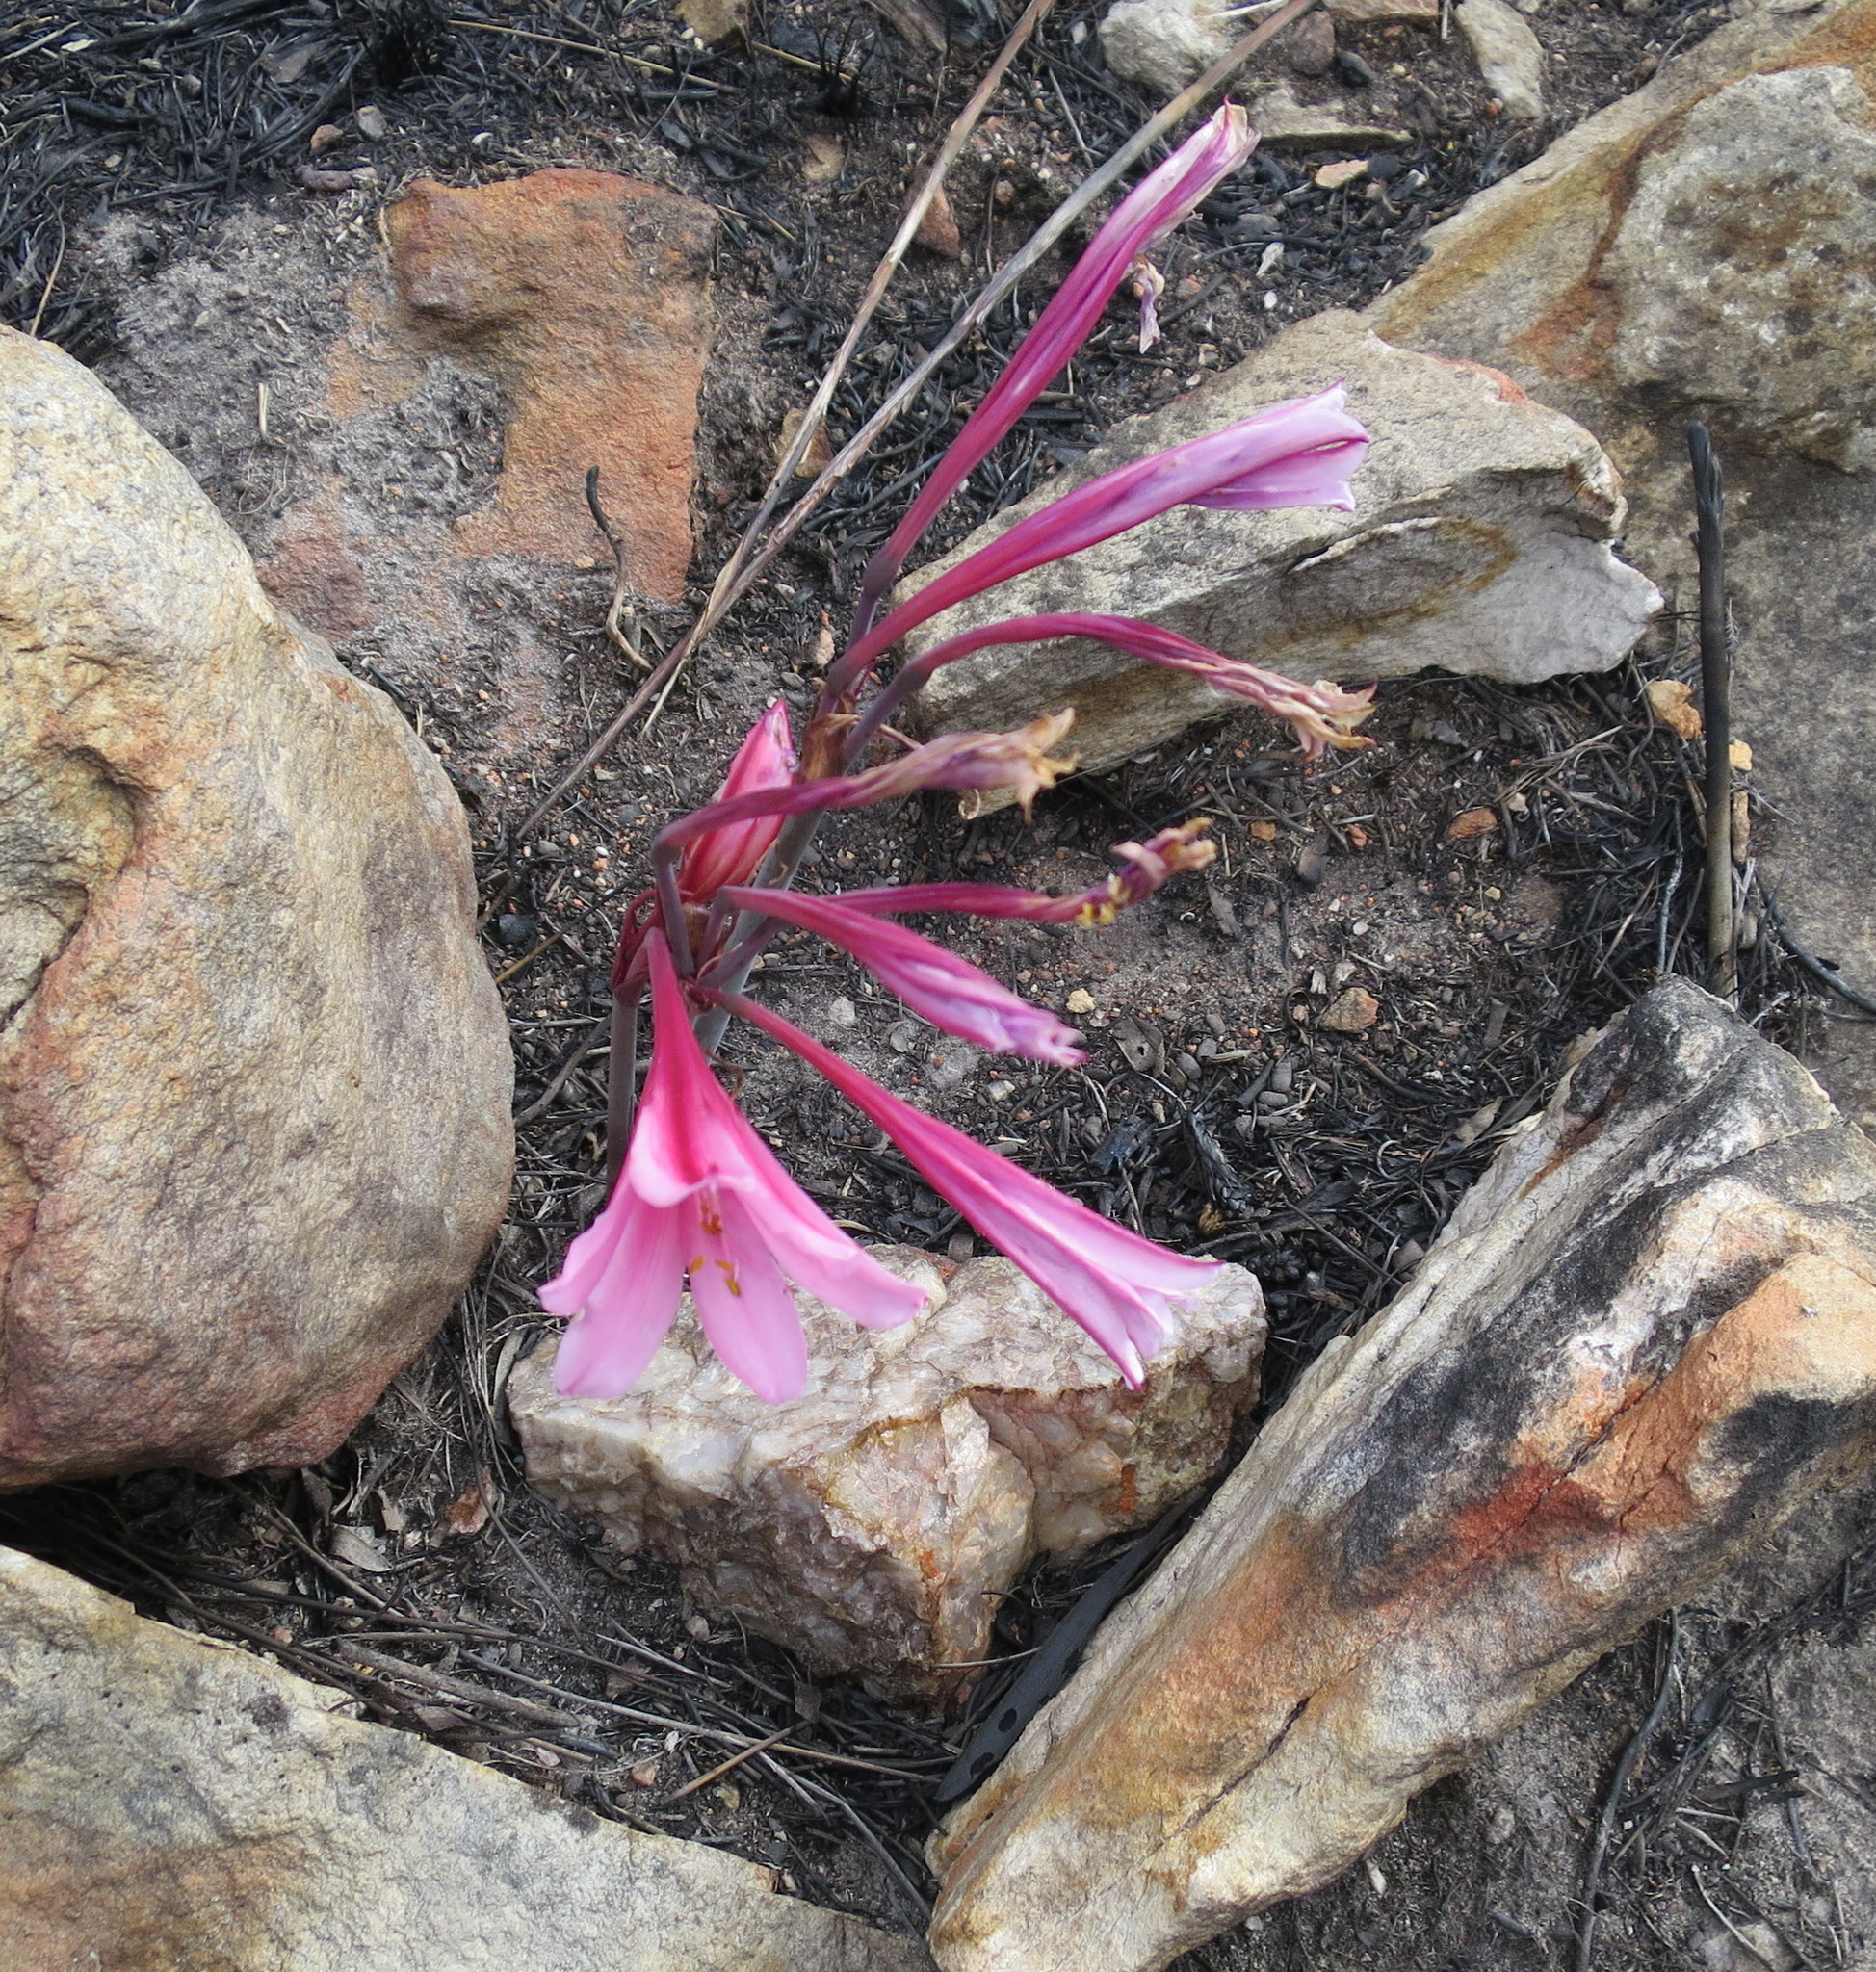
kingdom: Plantae
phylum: Tracheophyta
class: Liliopsida
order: Asparagales
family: Amaryllidaceae
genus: Cyrtanthus
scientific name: Cyrtanthus debilis
